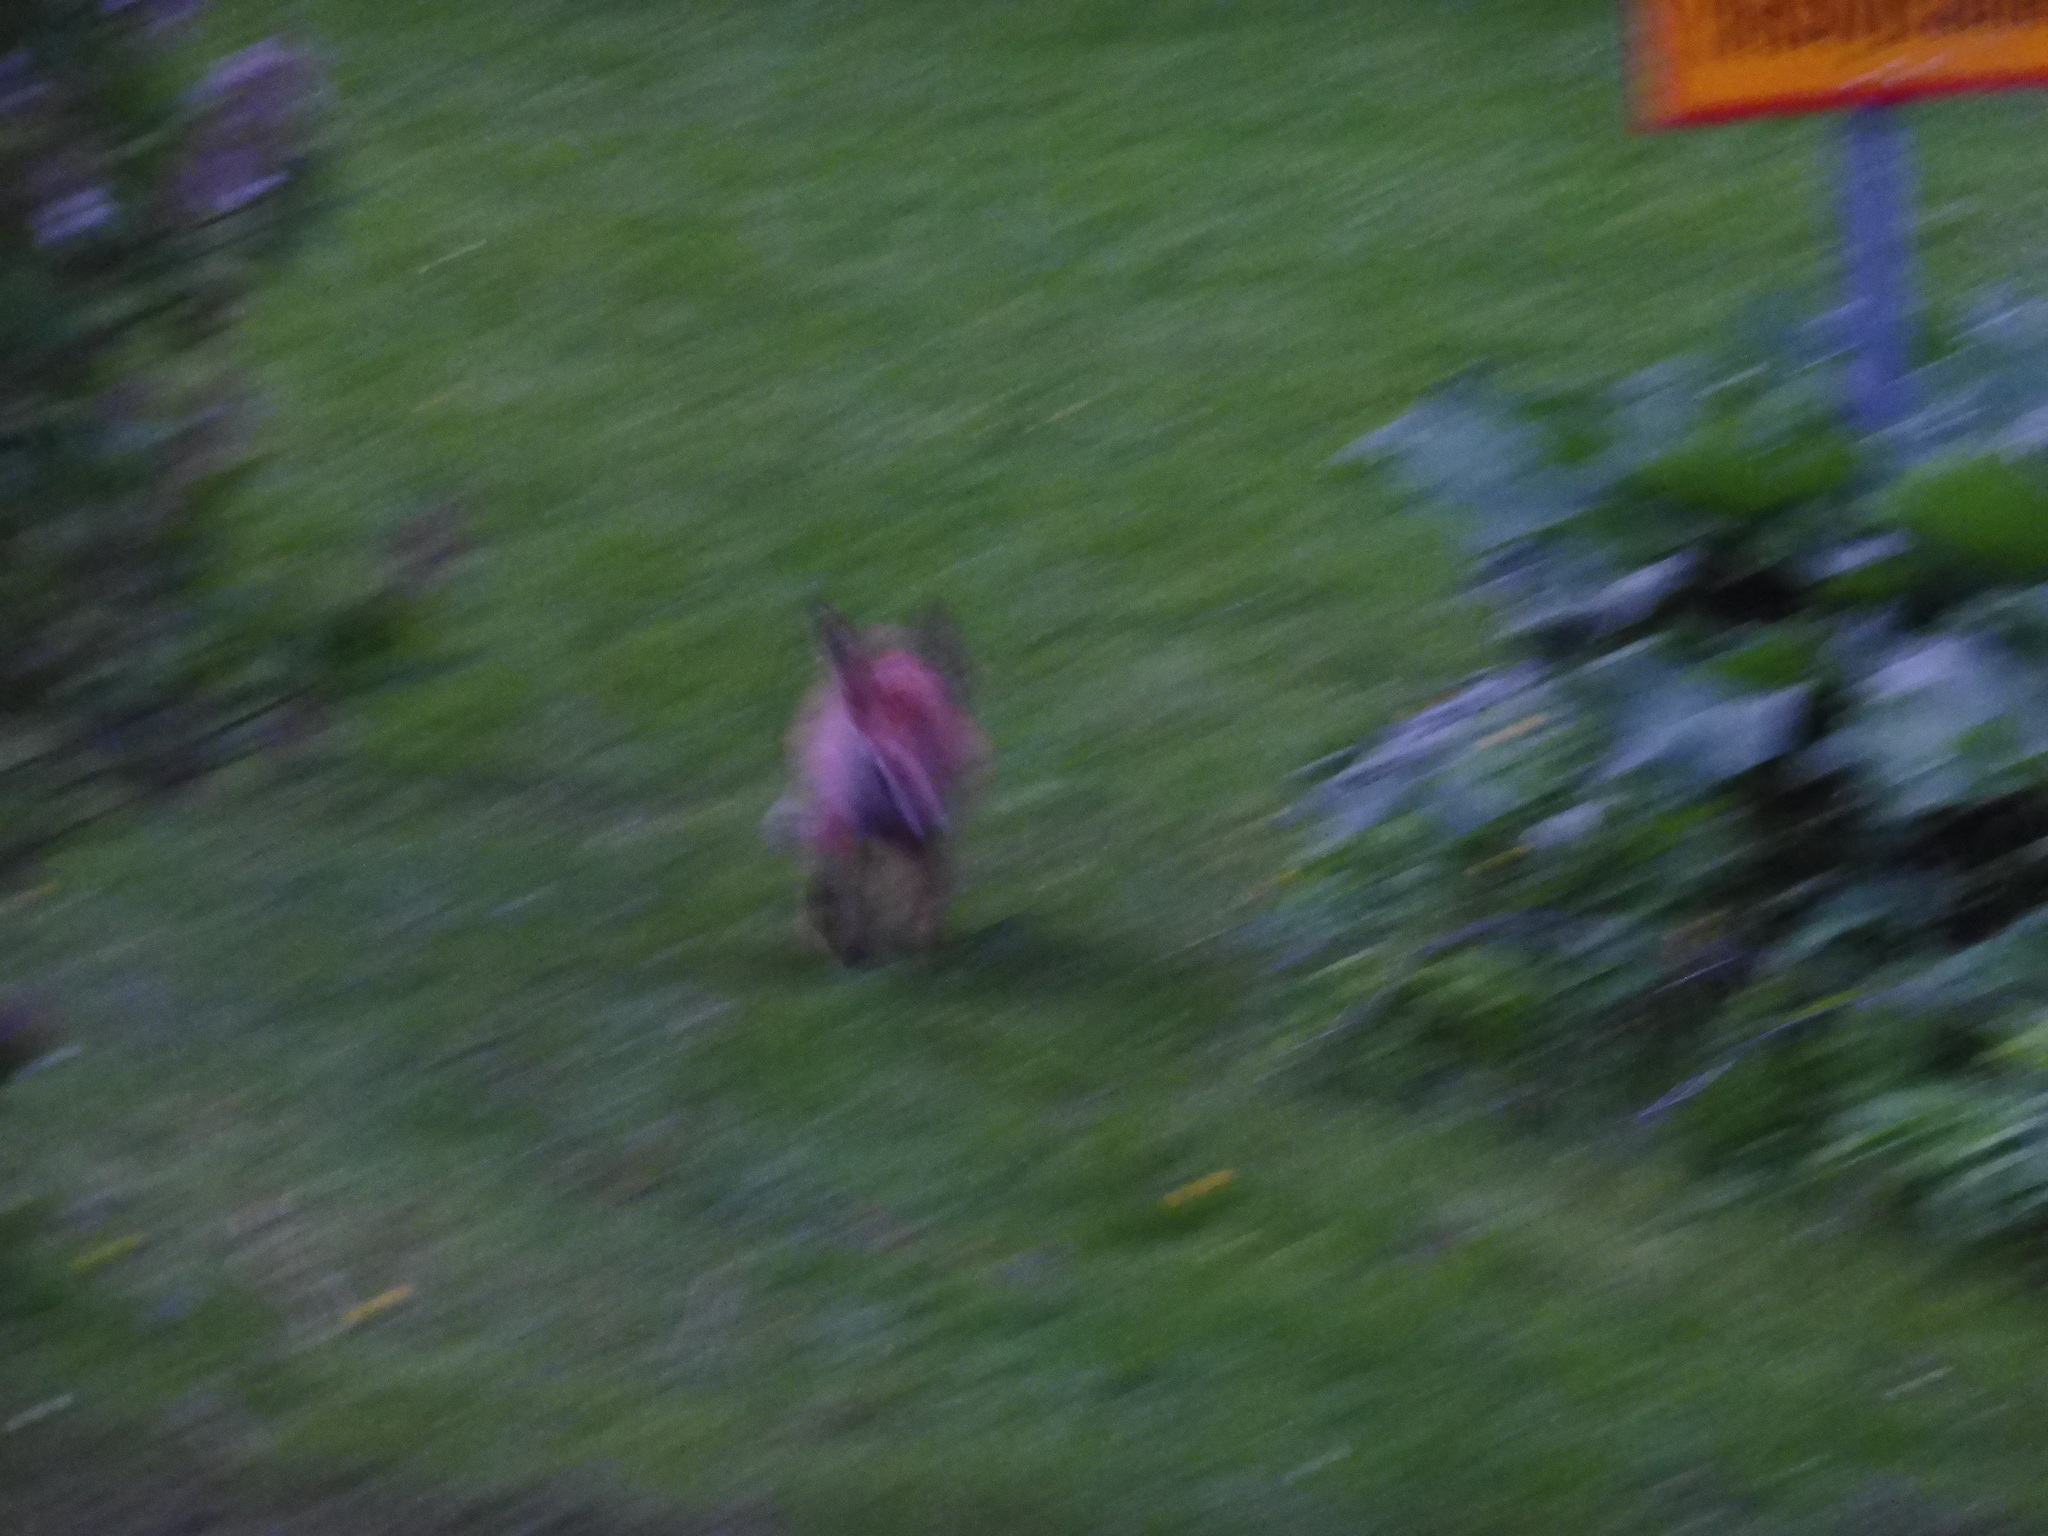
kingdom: Animalia
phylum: Chordata
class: Mammalia
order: Carnivora
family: Canidae
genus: Vulpes
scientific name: Vulpes vulpes
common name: Red fox
